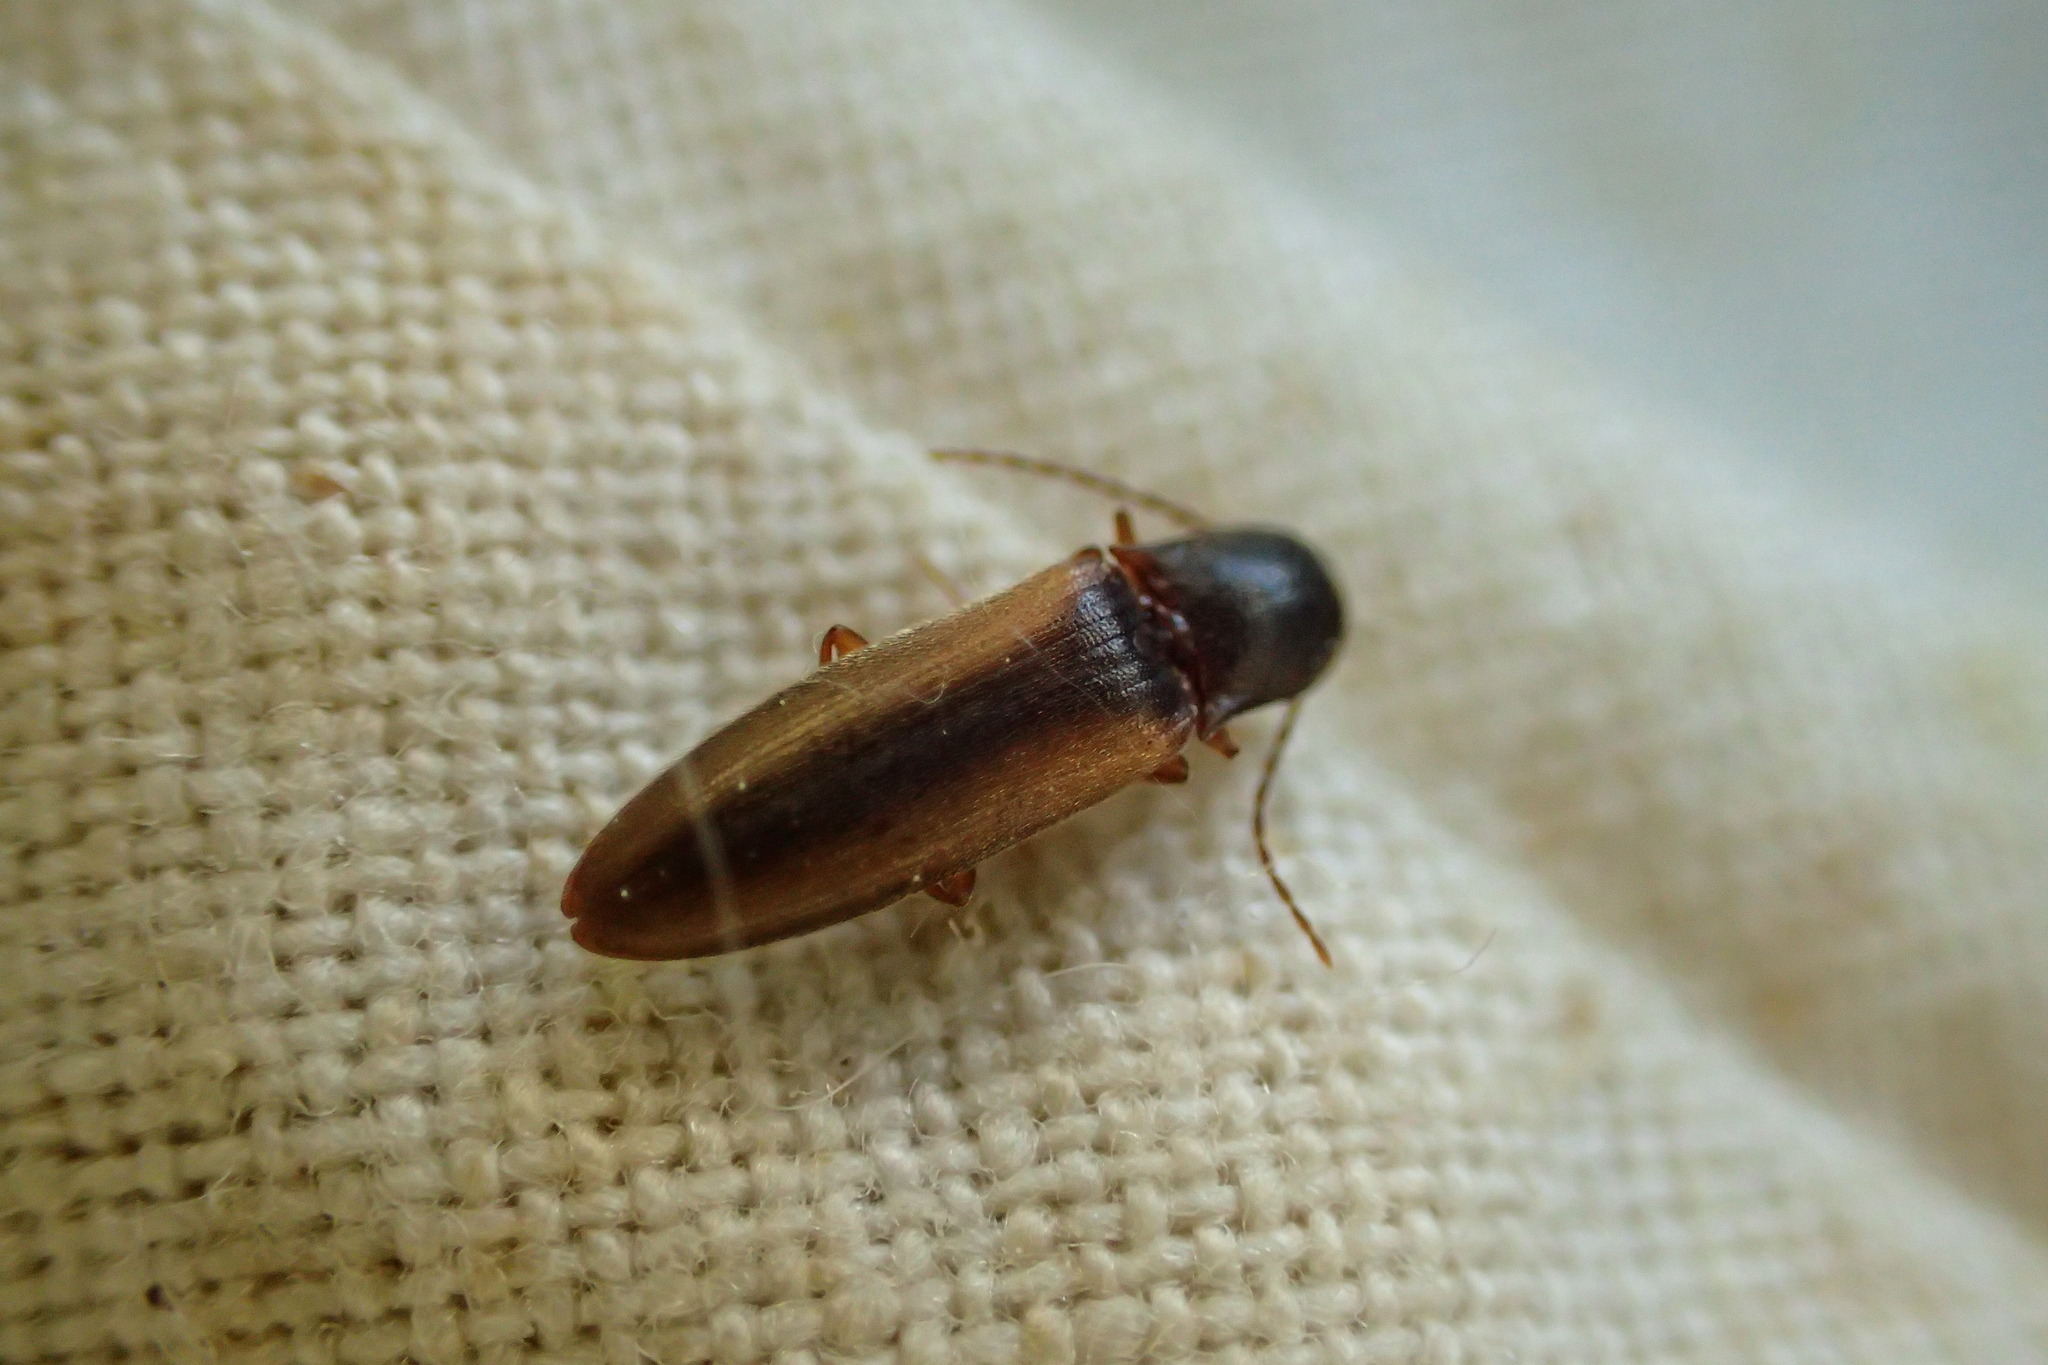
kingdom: Animalia
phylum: Arthropoda
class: Insecta
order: Coleoptera
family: Elateridae
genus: Dalopius
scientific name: Dalopius marginatus
